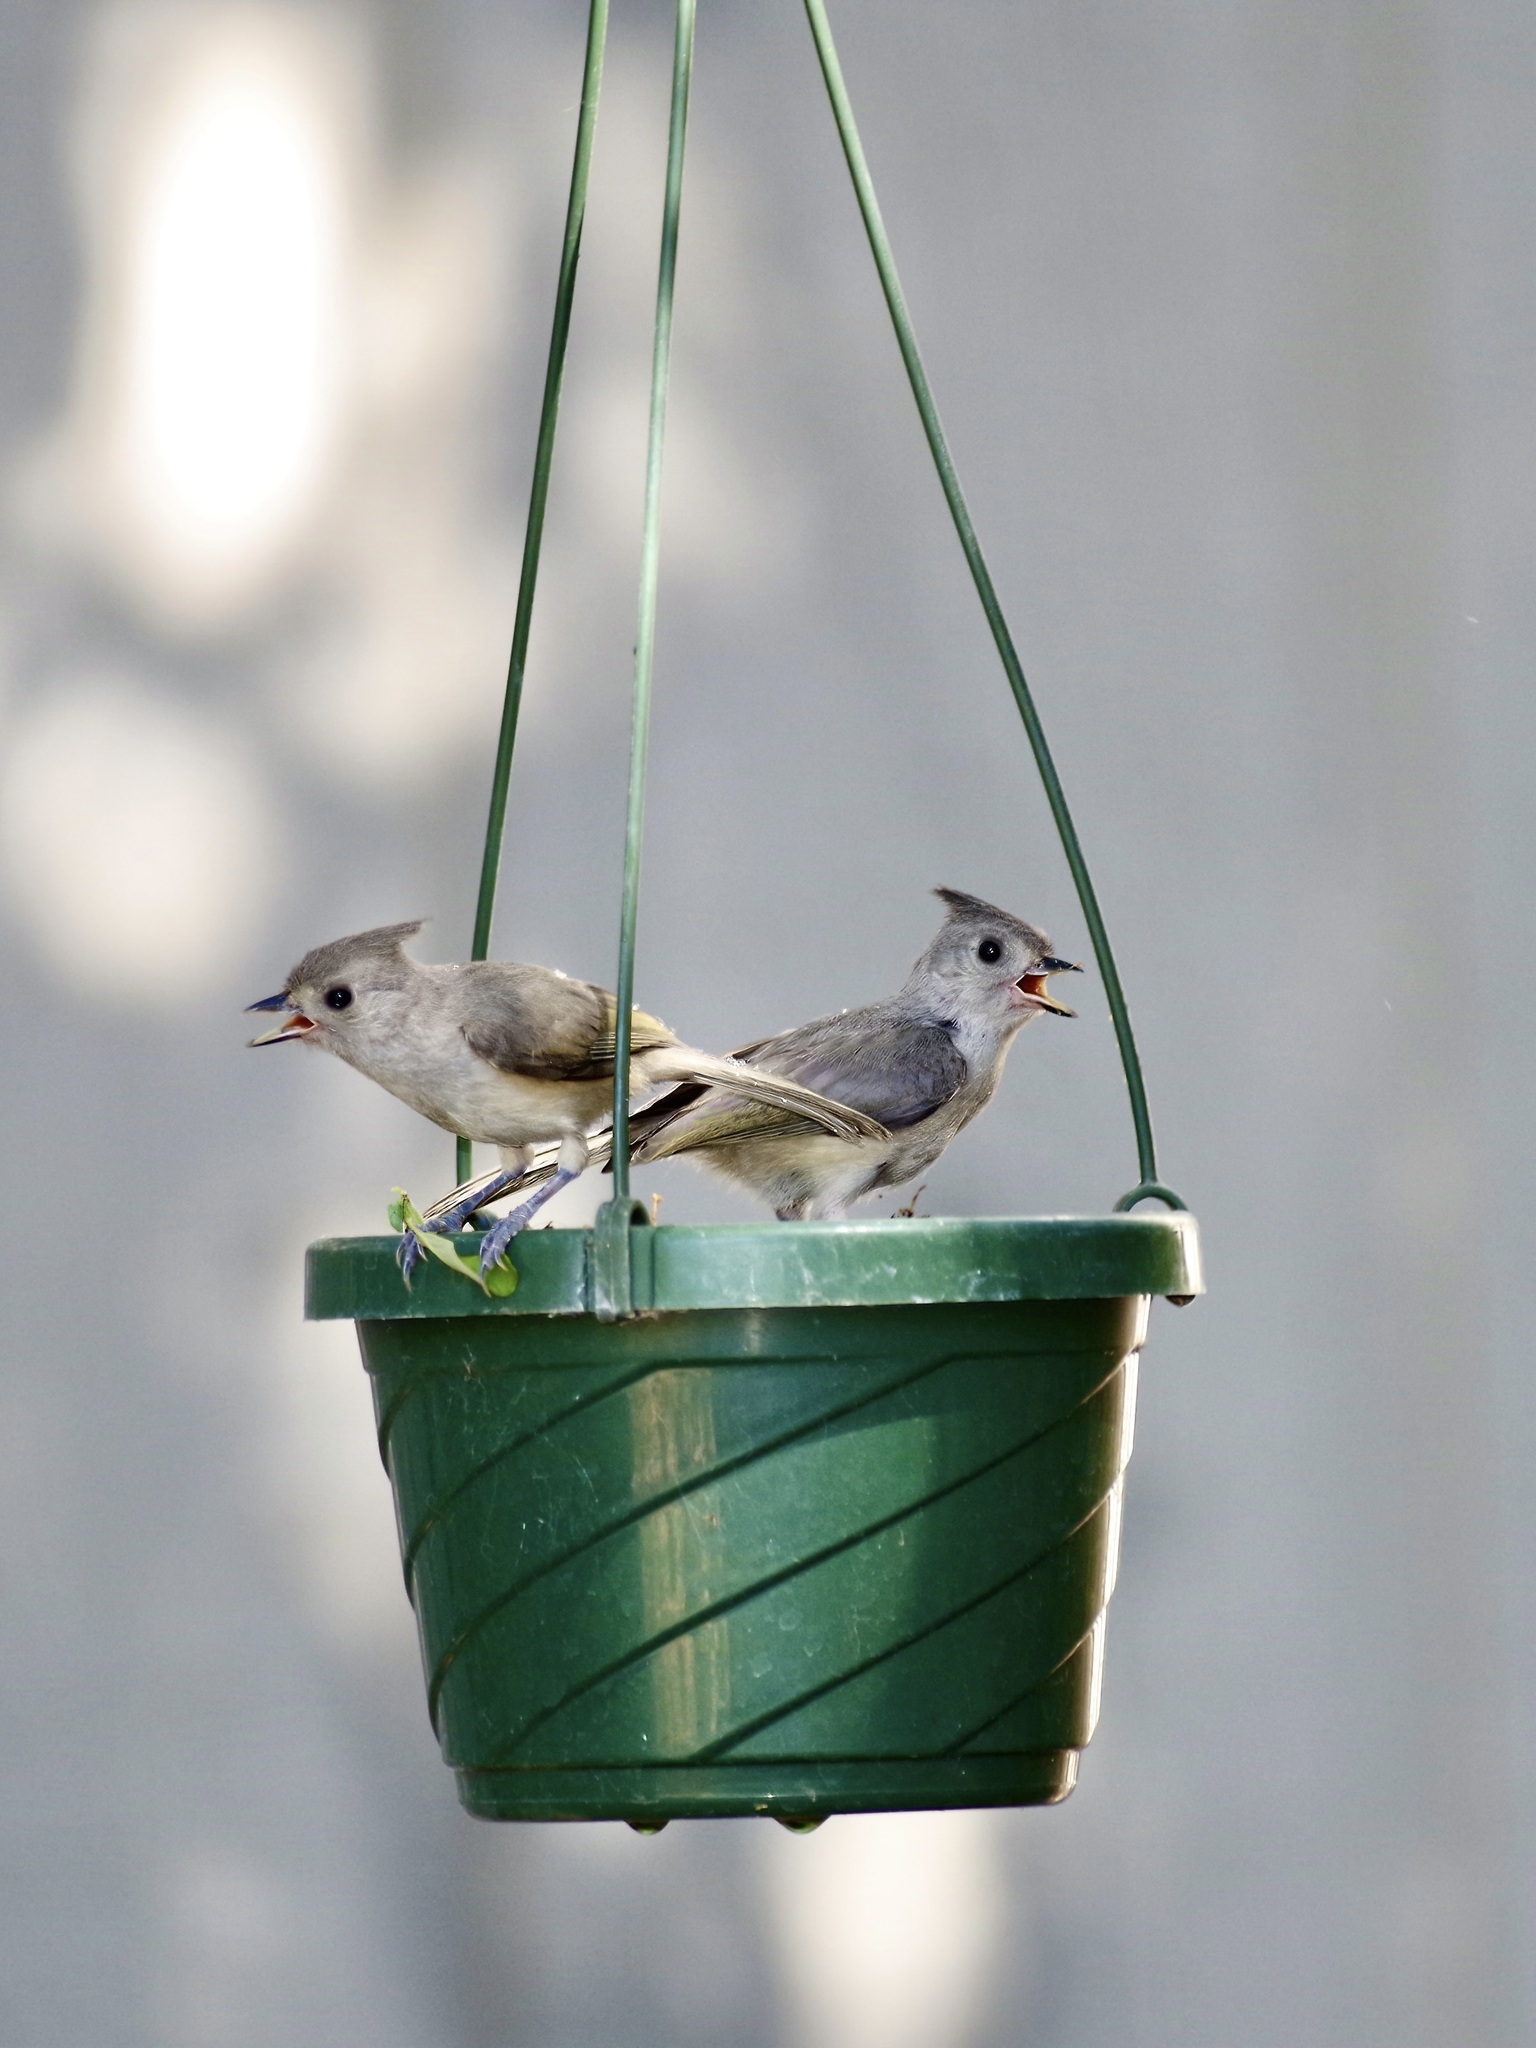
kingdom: Animalia
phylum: Chordata
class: Aves
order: Passeriformes
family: Paridae
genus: Baeolophus
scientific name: Baeolophus
